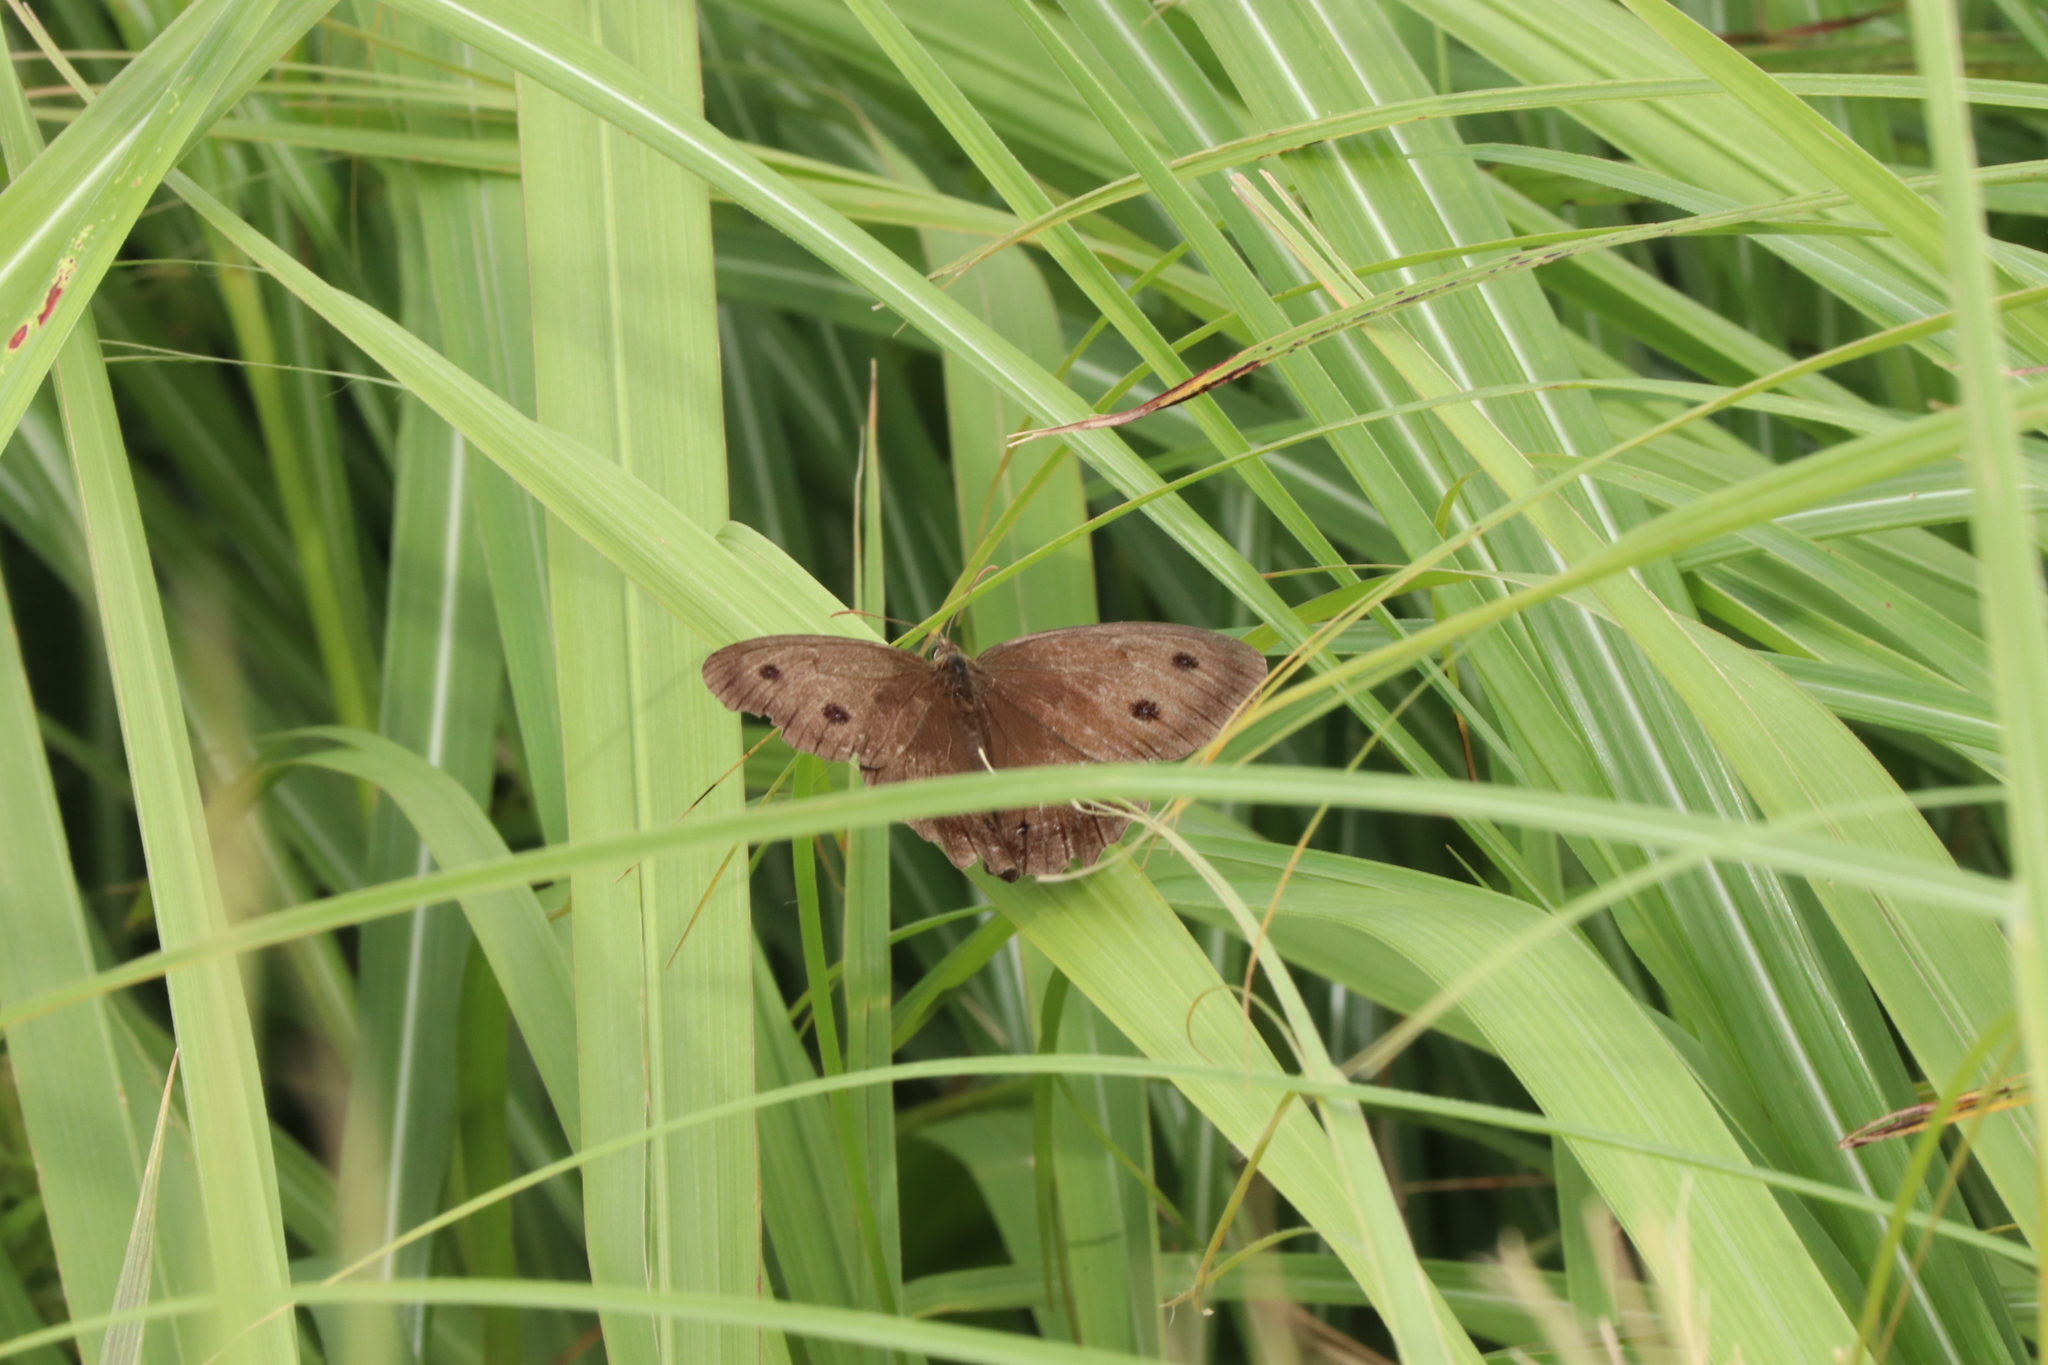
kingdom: Animalia
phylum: Arthropoda
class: Insecta
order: Lepidoptera
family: Nymphalidae
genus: Minois
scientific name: Minois dryas
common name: Dryad
